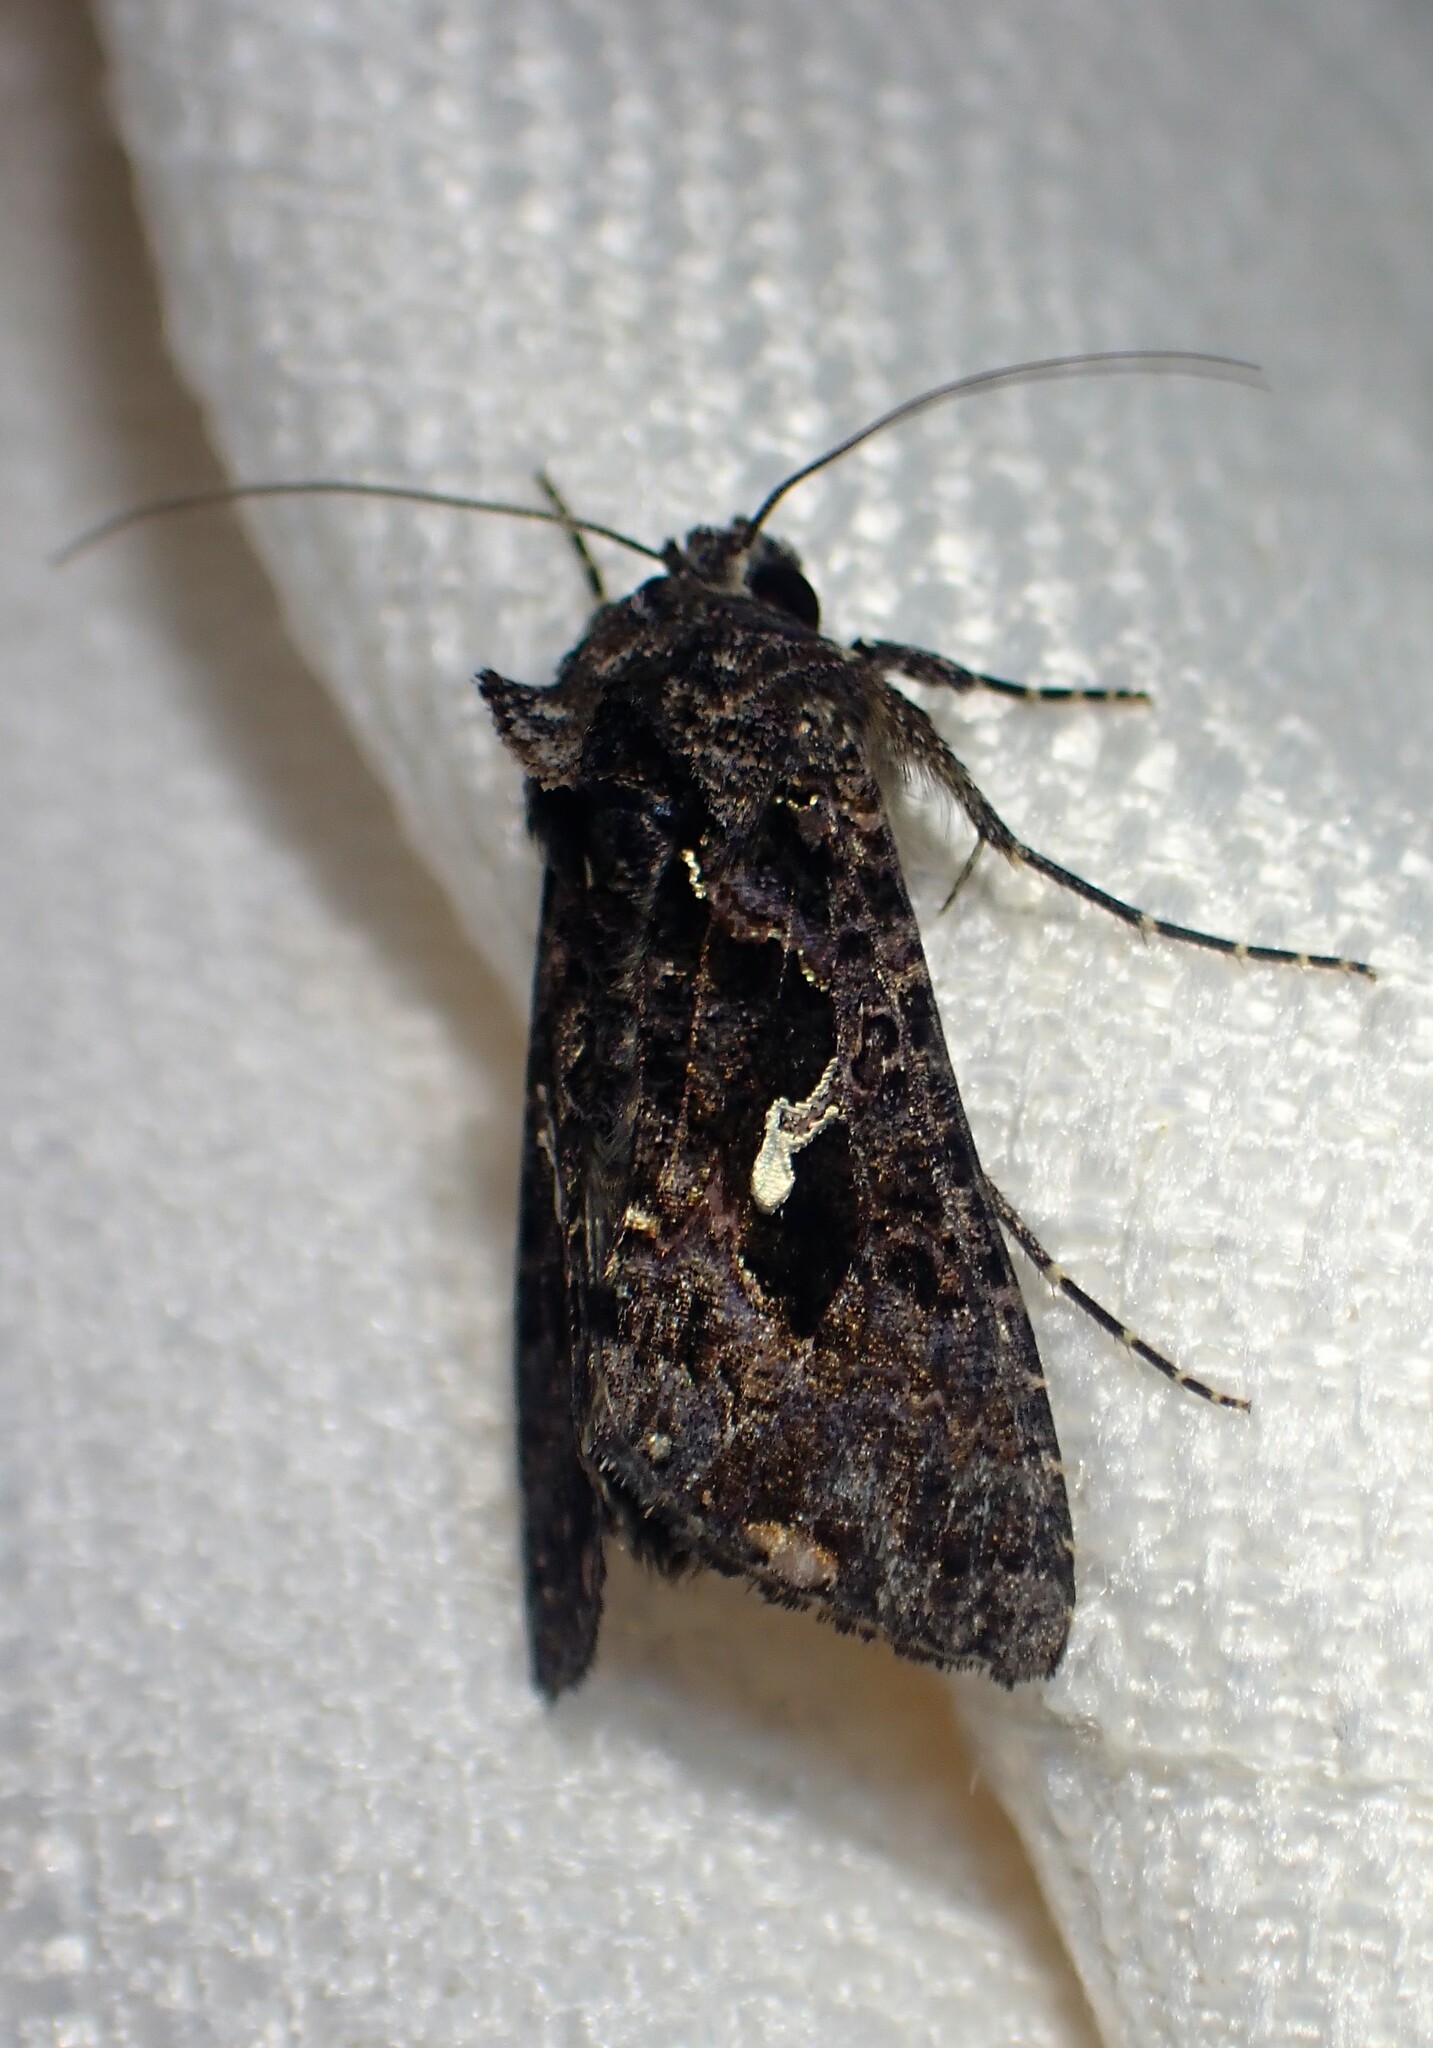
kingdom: Animalia
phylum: Arthropoda
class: Insecta
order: Lepidoptera
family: Noctuidae
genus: Ctenoplusia
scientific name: Ctenoplusia limbirena
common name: Scar bank gem
